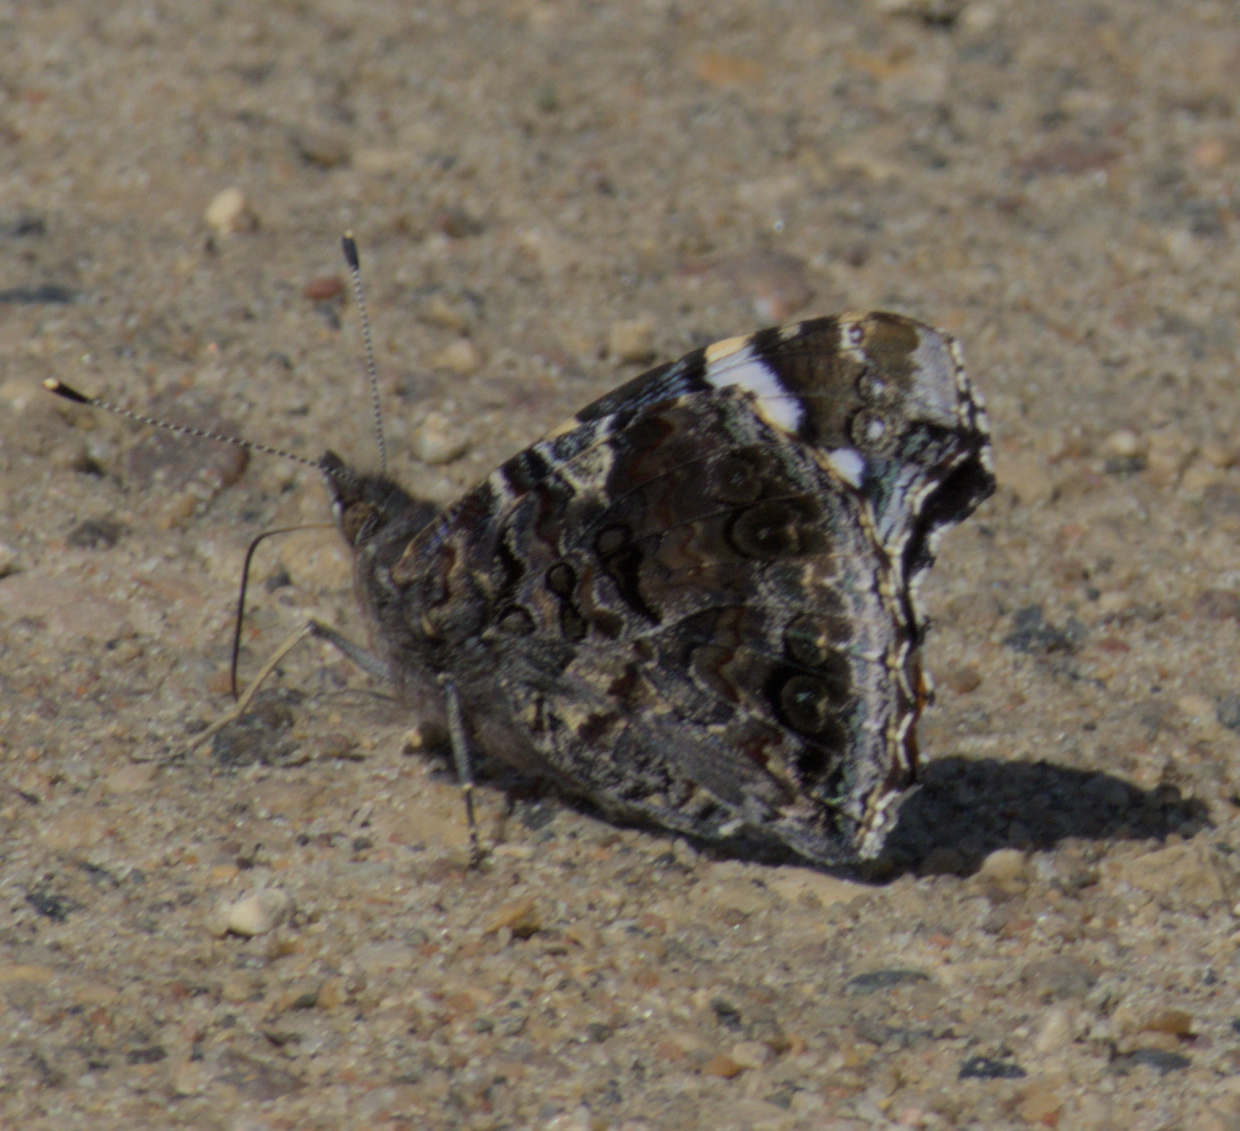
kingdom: Animalia
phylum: Arthropoda
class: Insecta
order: Lepidoptera
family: Nymphalidae
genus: Vanessa
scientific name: Vanessa atalanta
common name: Red admiral
